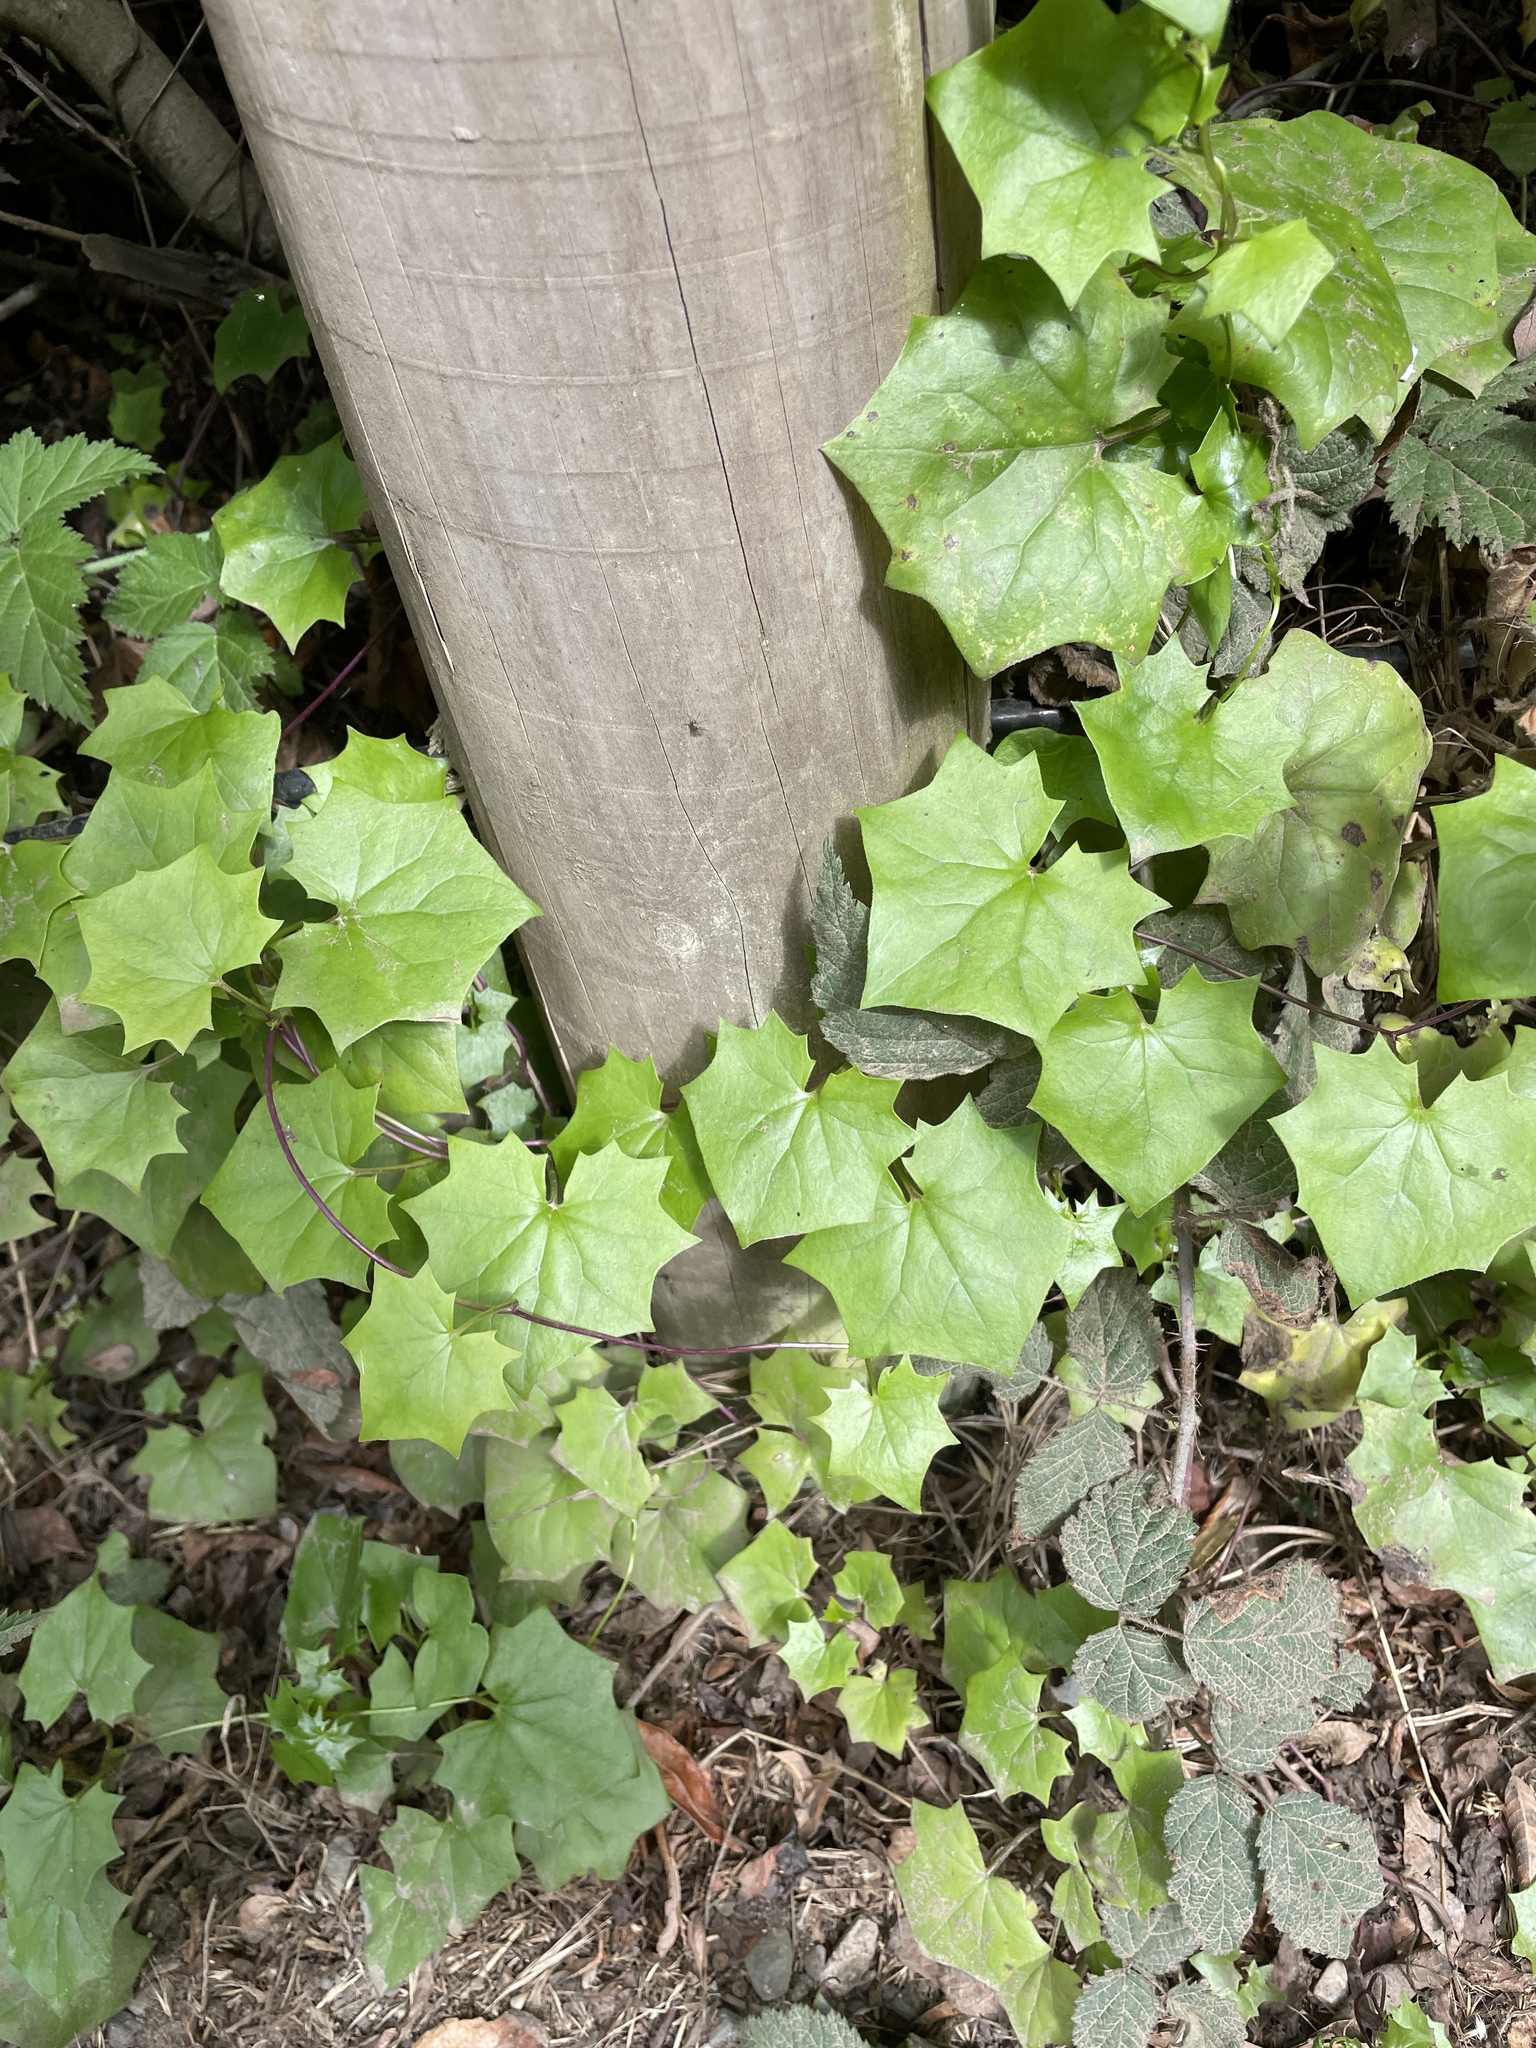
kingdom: Plantae
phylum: Tracheophyta
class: Magnoliopsida
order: Asterales
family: Asteraceae
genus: Delairea
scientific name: Delairea odorata
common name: Cape-ivy
